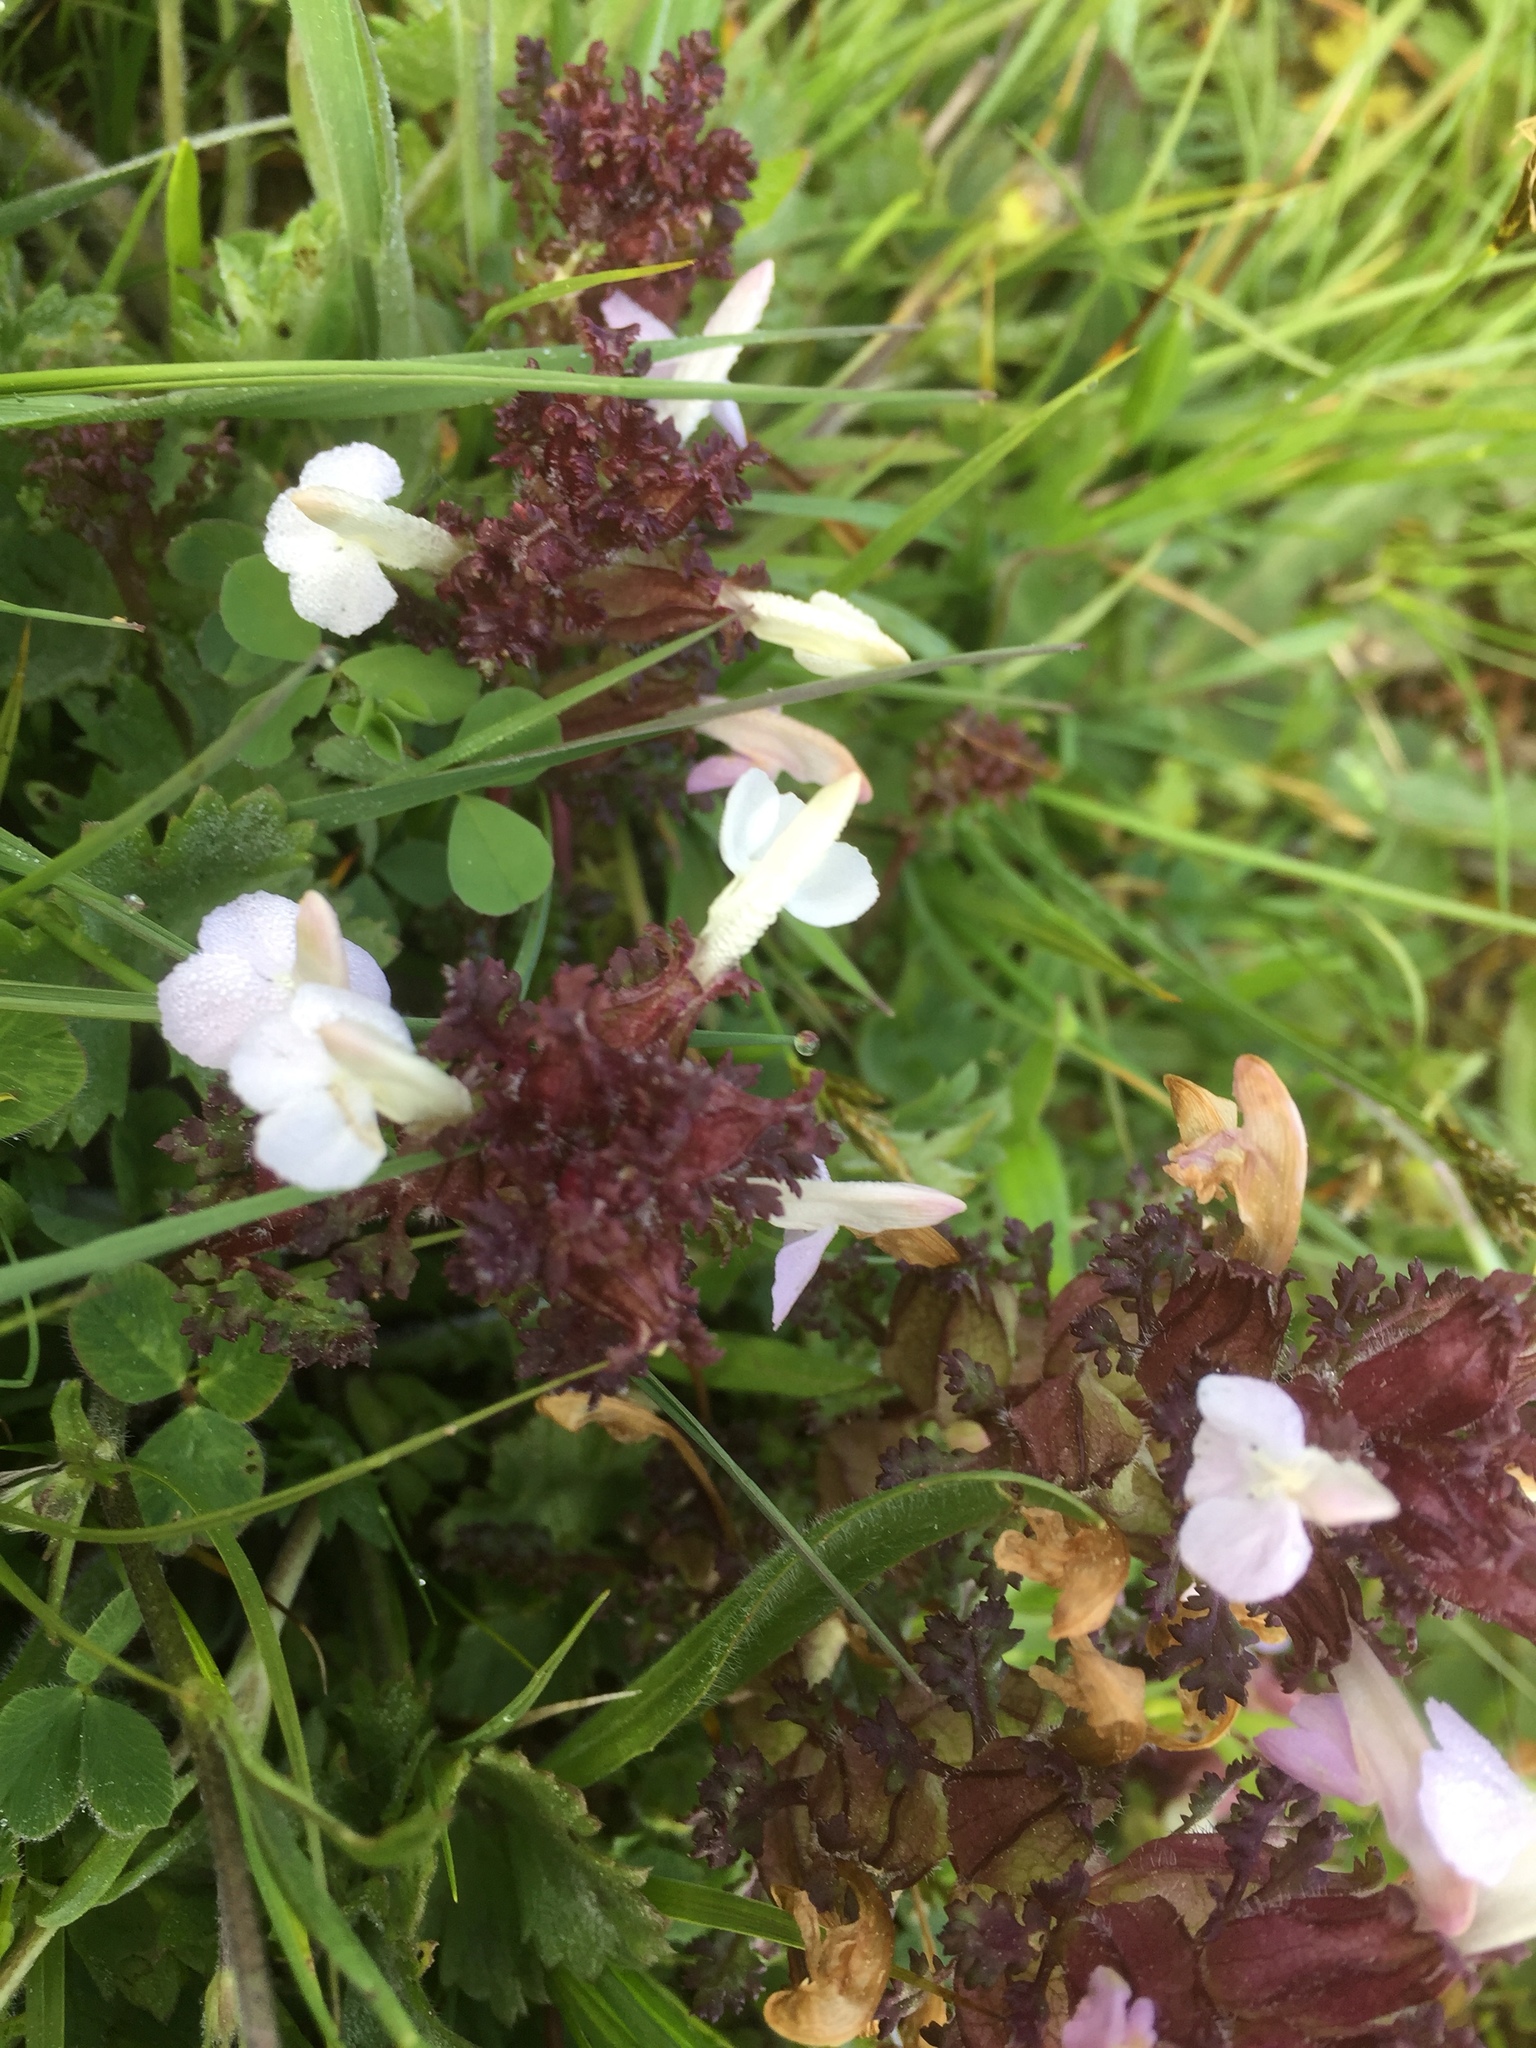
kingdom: Plantae
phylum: Tracheophyta
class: Magnoliopsida
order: Lamiales
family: Orobanchaceae
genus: Pedicularis
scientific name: Pedicularis sylvatica
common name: Lousewort
